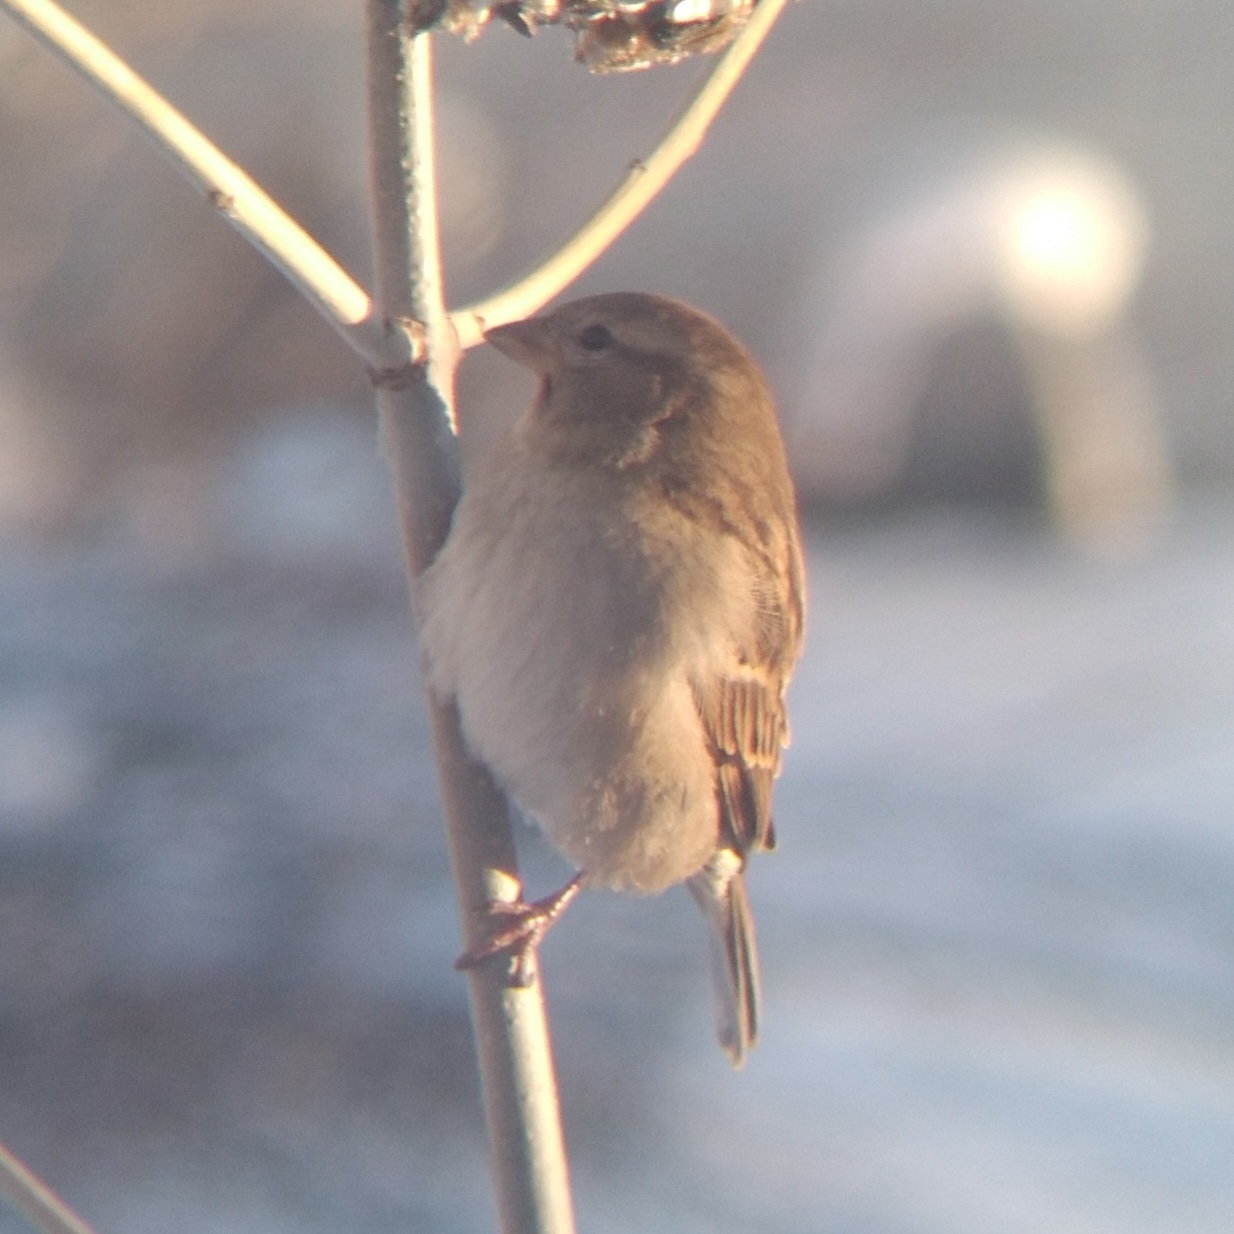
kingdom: Animalia
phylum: Chordata
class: Aves
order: Passeriformes
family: Passeridae
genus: Passer
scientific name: Passer domesticus
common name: House sparrow
